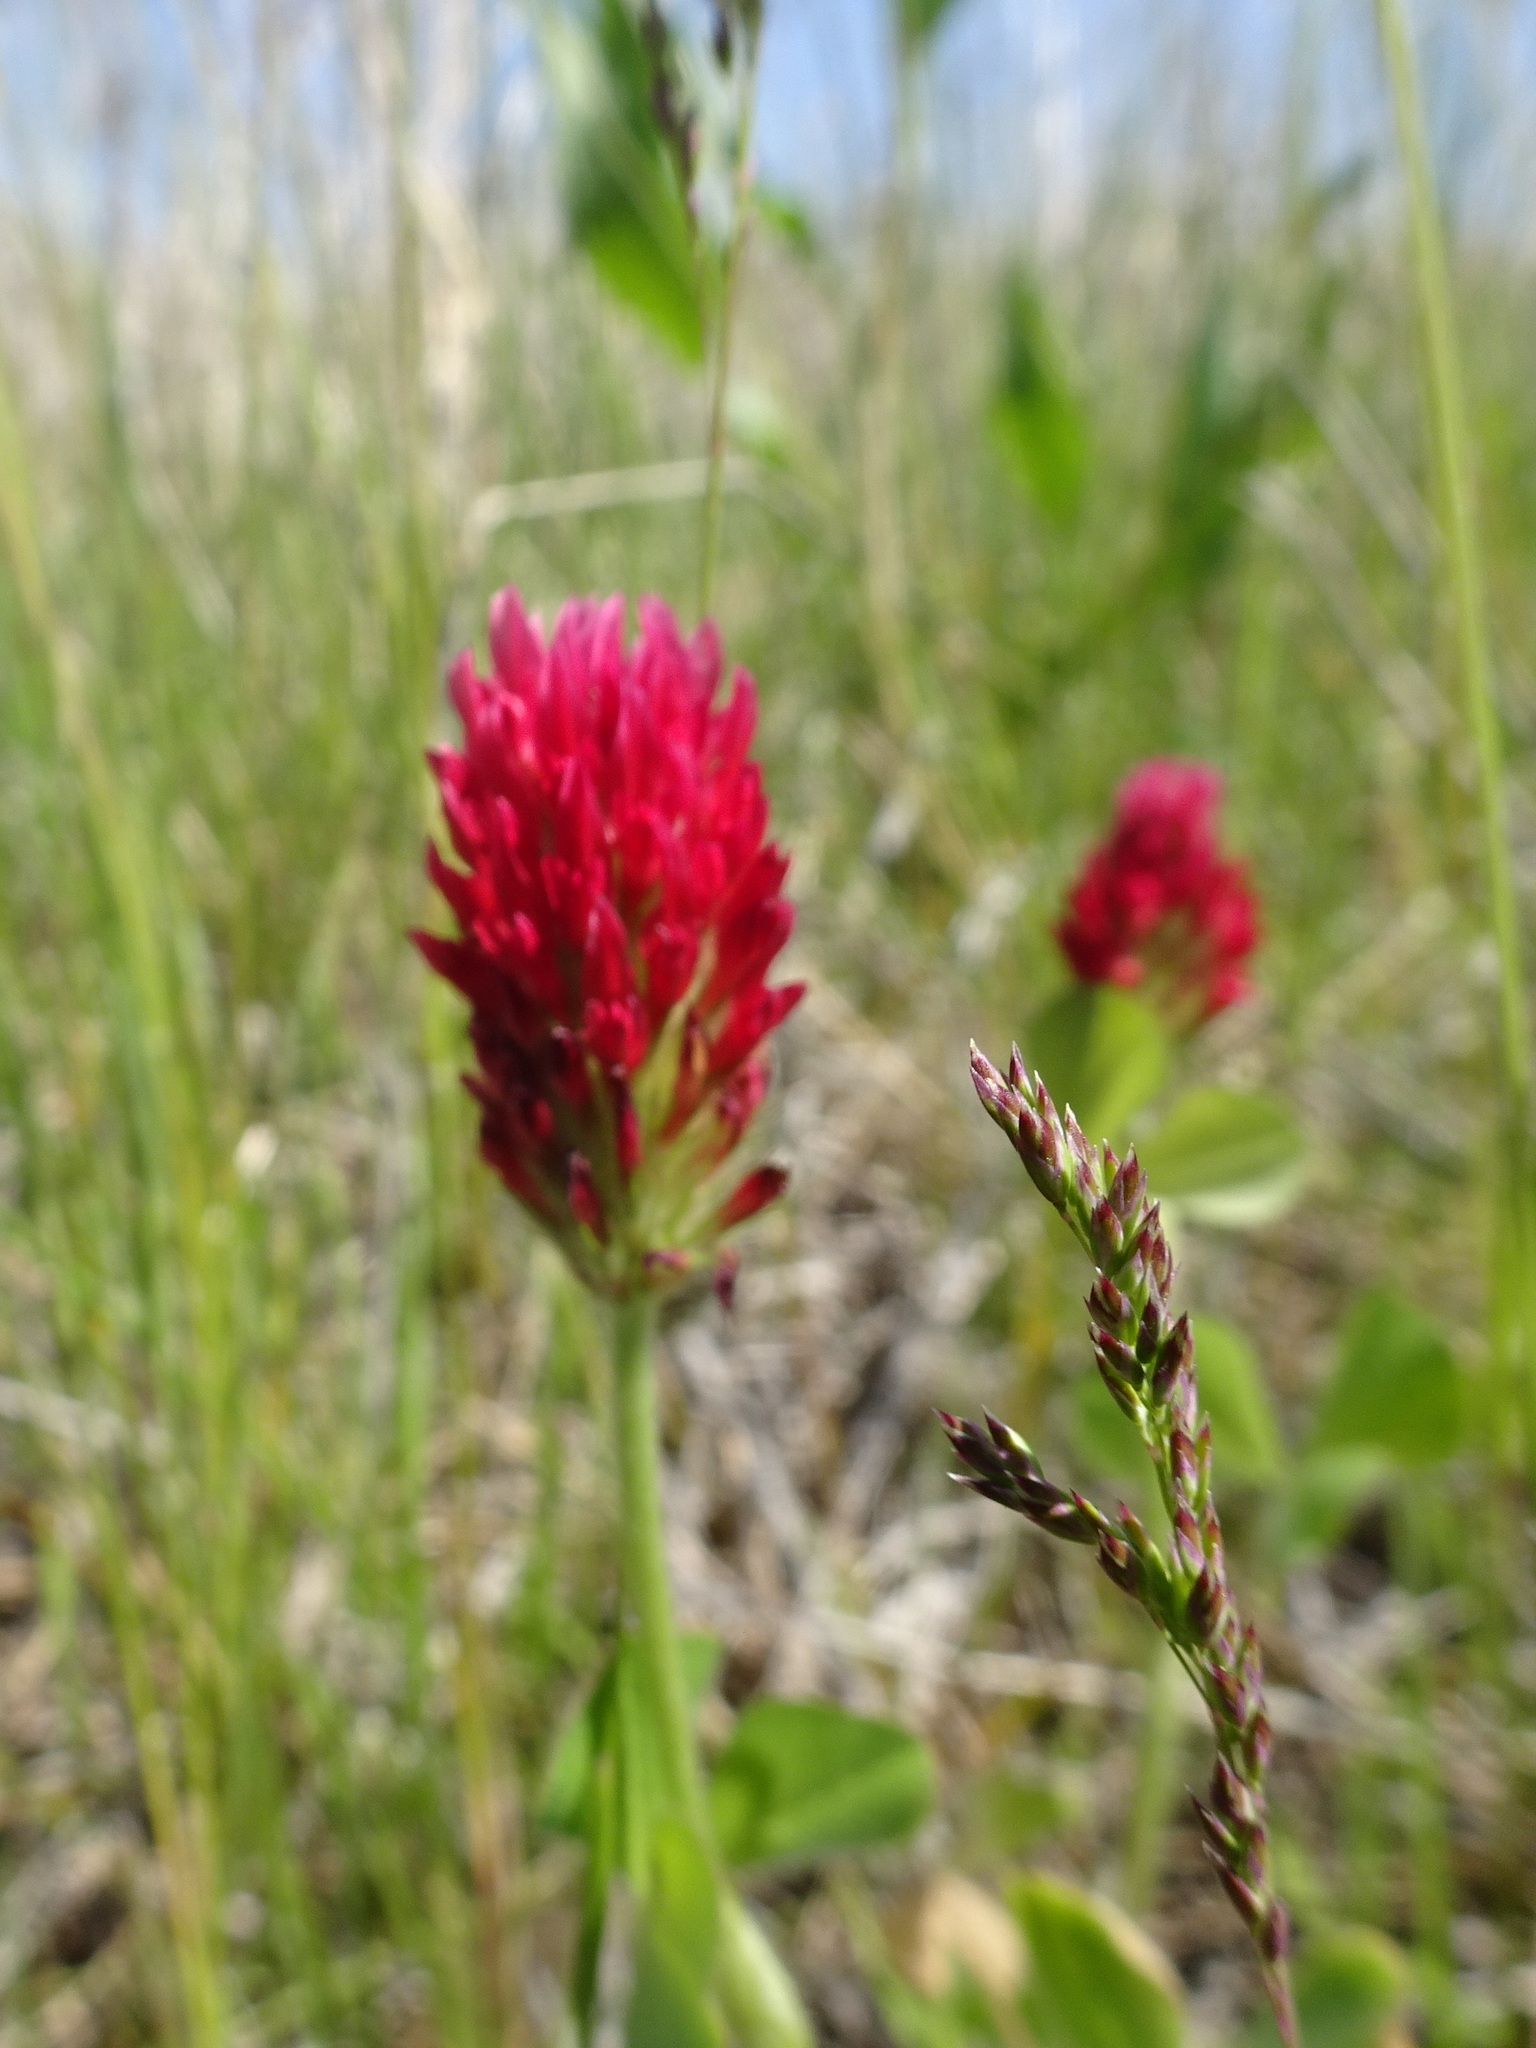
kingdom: Plantae
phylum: Tracheophyta
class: Magnoliopsida
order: Fabales
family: Fabaceae
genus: Trifolium
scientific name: Trifolium incarnatum
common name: Crimson clover
